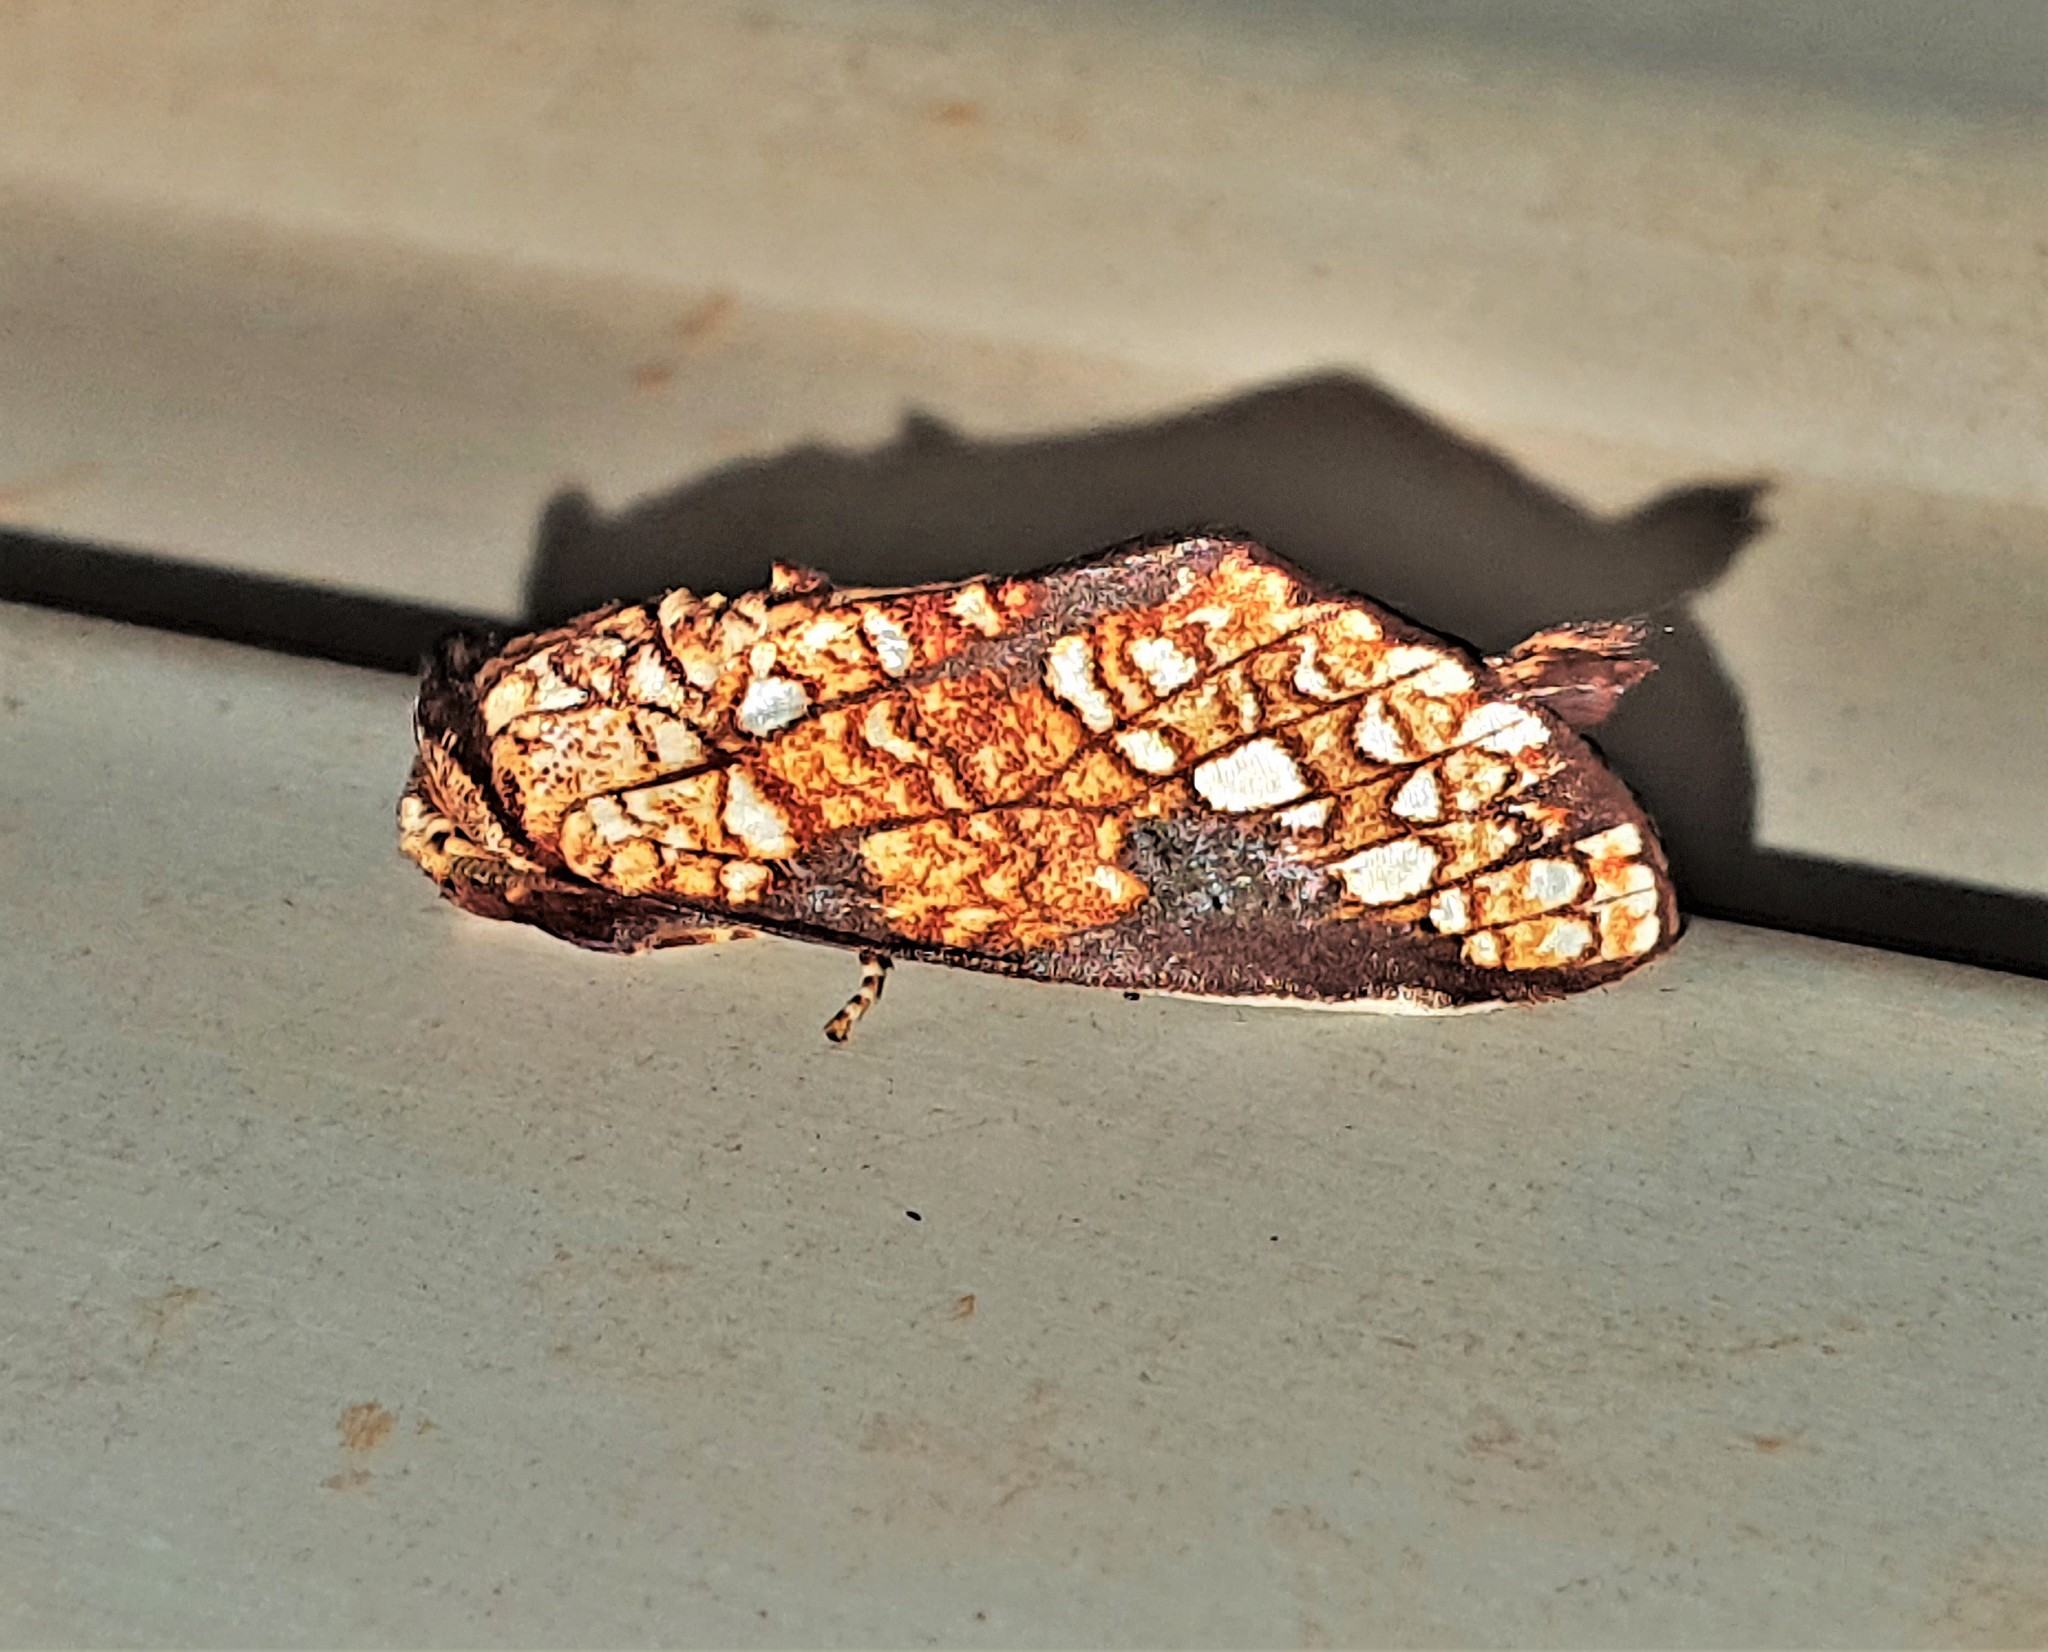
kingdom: Animalia
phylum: Arthropoda
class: Insecta
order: Lepidoptera
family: Notodontidae
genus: Argentiza
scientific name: Argentiza
